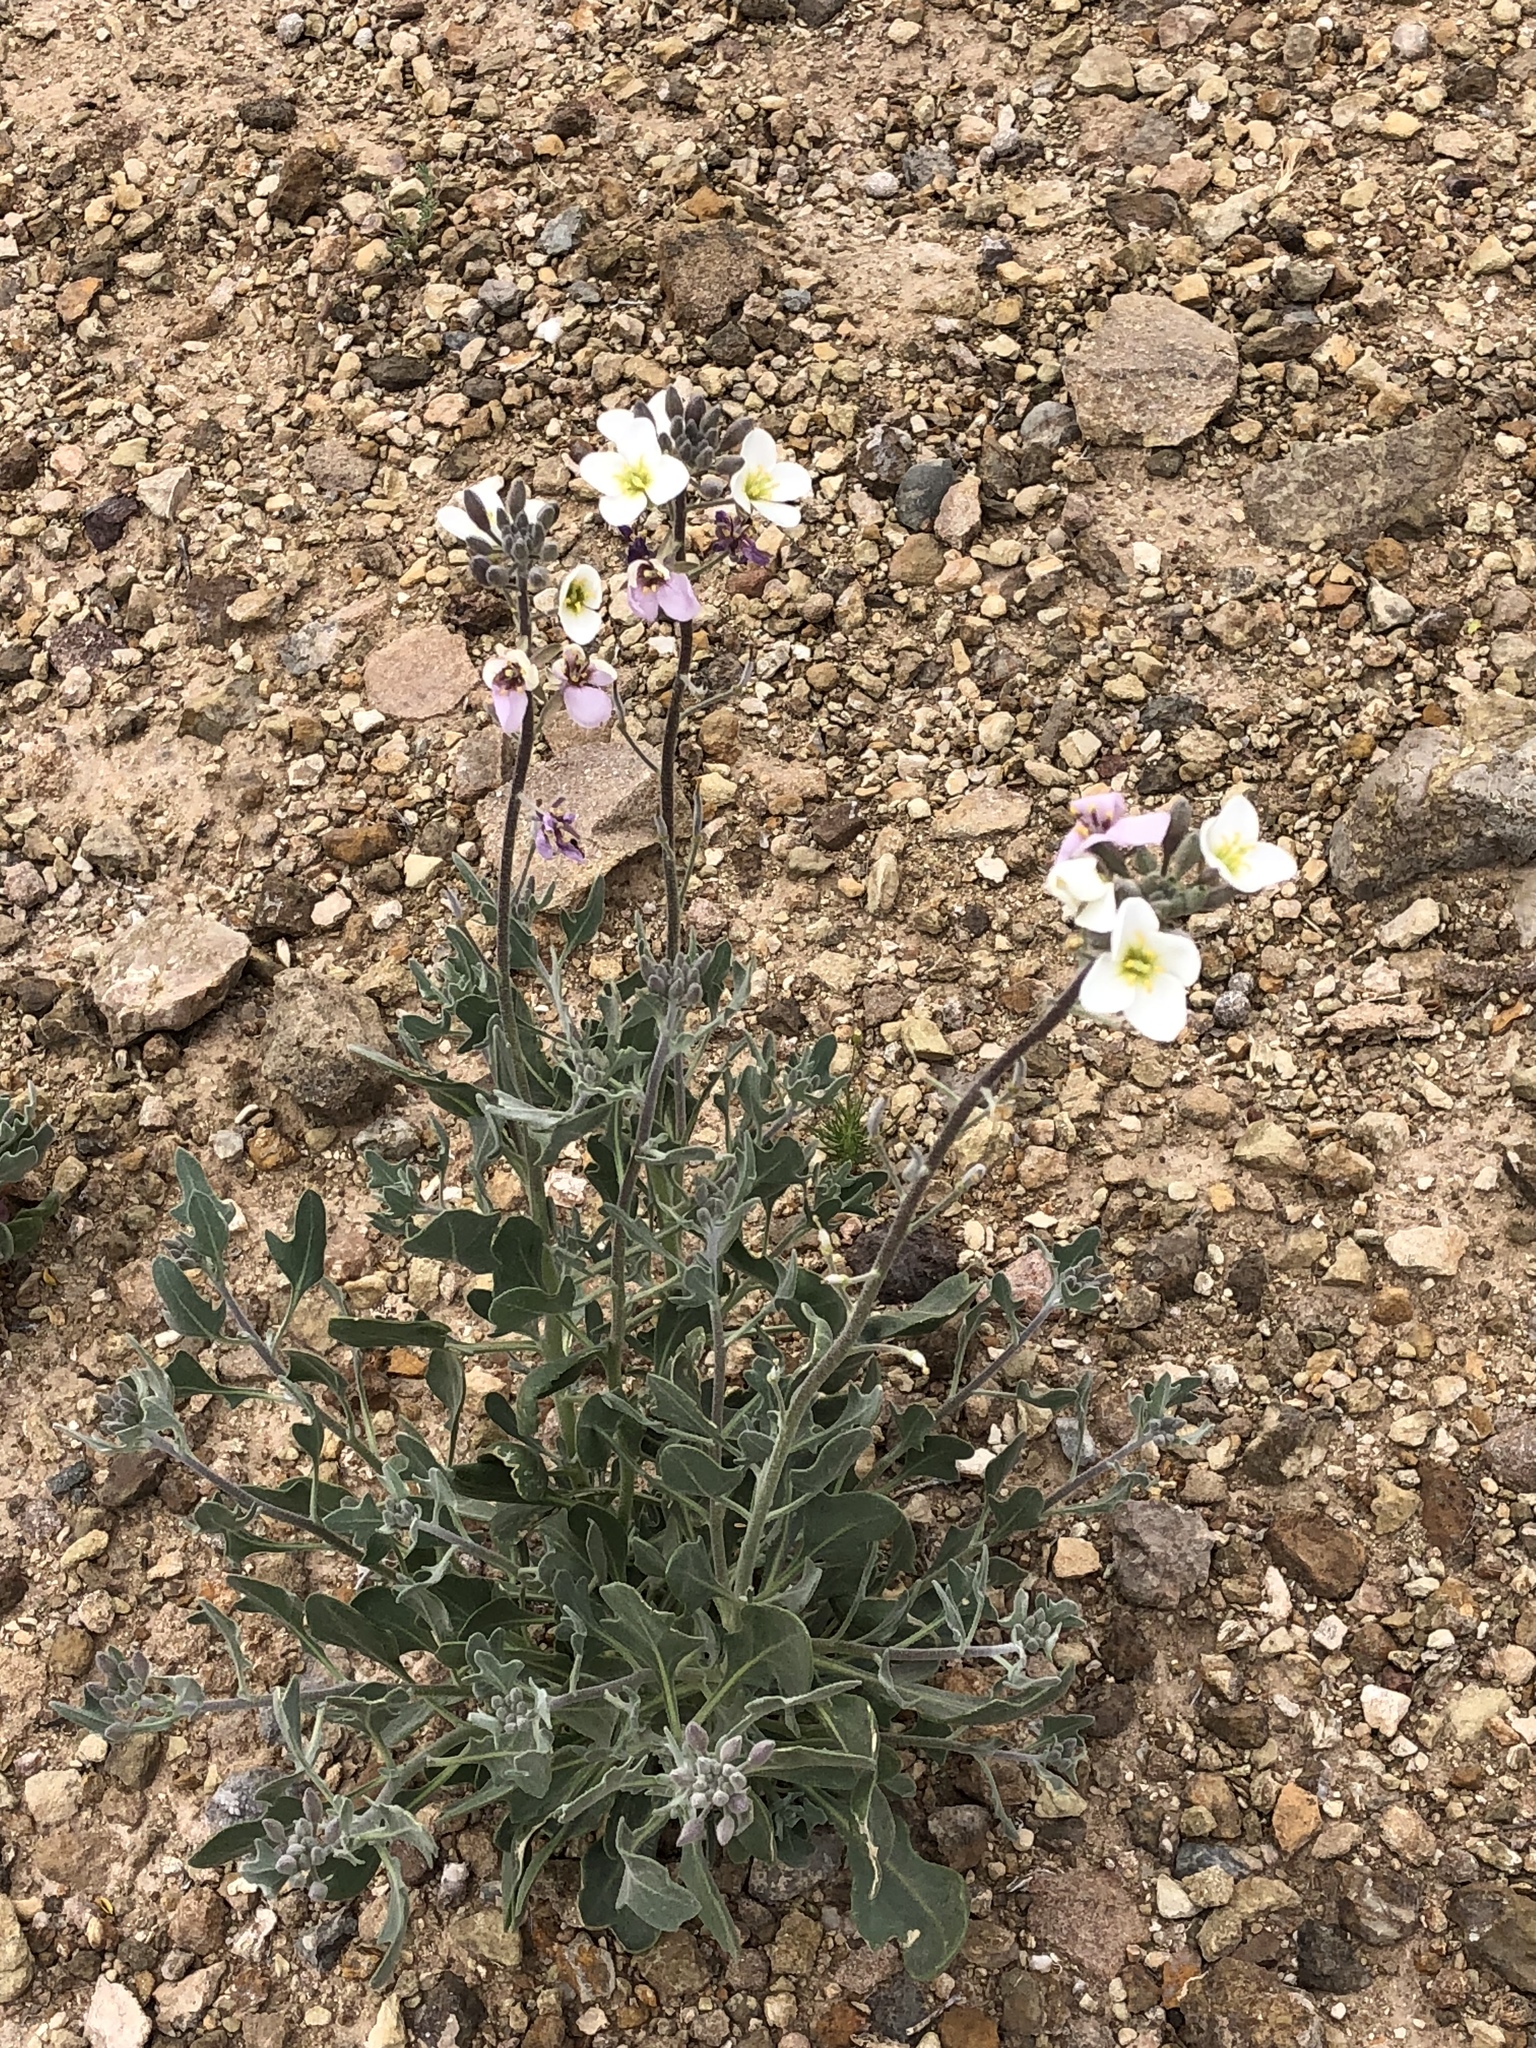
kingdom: Plantae
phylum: Tracheophyta
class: Magnoliopsida
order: Brassicales
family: Brassicaceae
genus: Nerisyrenia
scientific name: Nerisyrenia camporum
